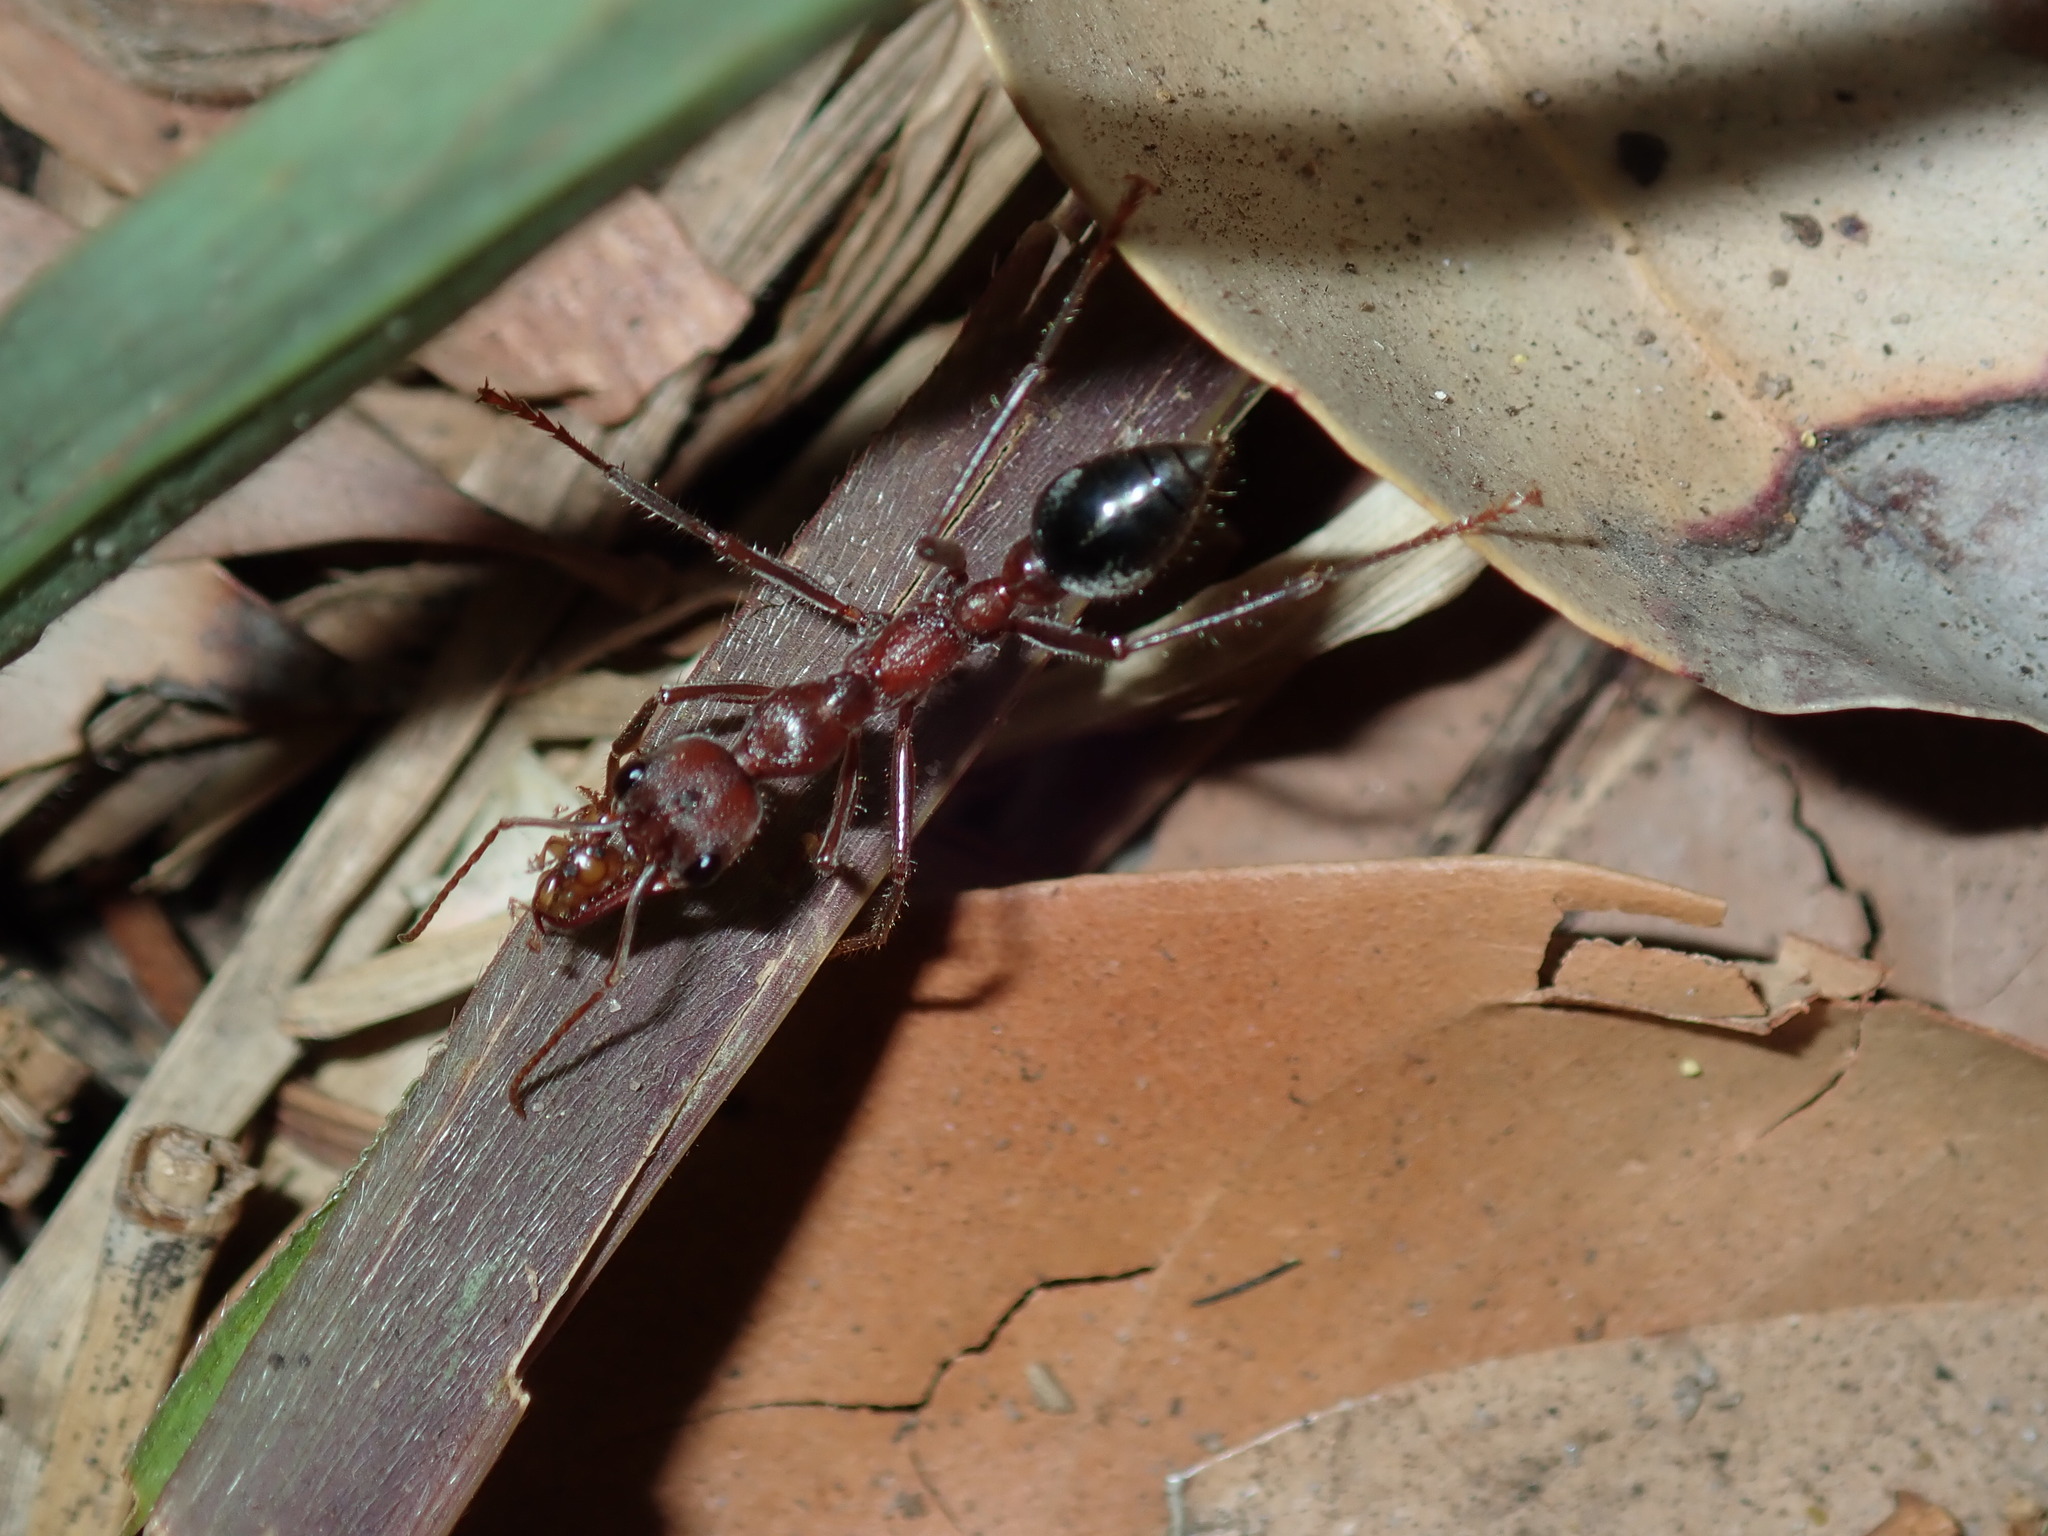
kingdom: Animalia
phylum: Arthropoda
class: Insecta
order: Hymenoptera
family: Formicidae
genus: Myrmecia
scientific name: Myrmecia comata
